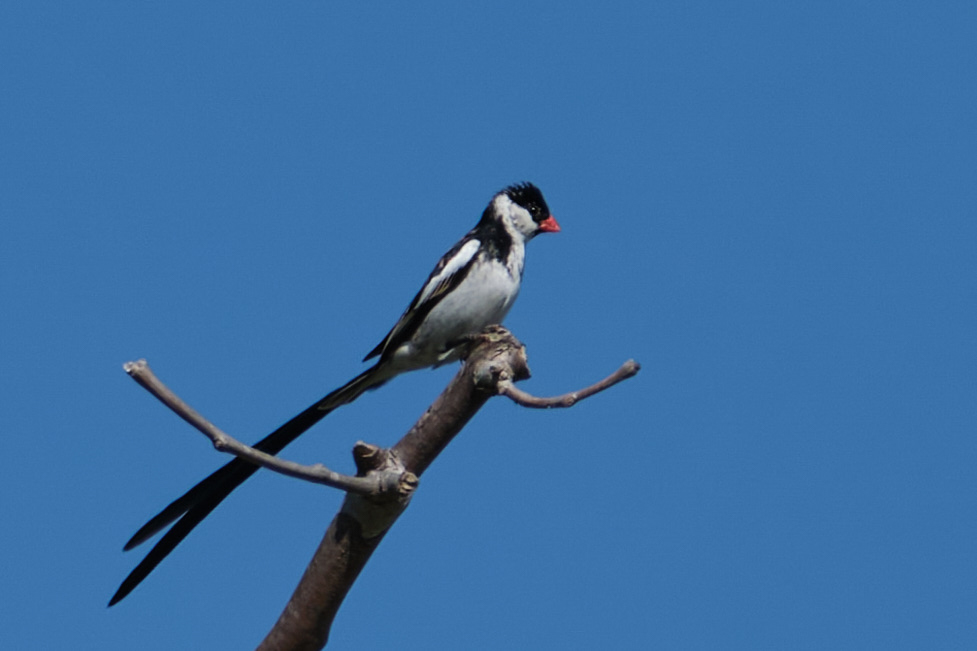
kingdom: Animalia
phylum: Chordata
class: Aves
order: Passeriformes
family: Viduidae
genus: Vidua
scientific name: Vidua macroura
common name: Pin-tailed whydah
